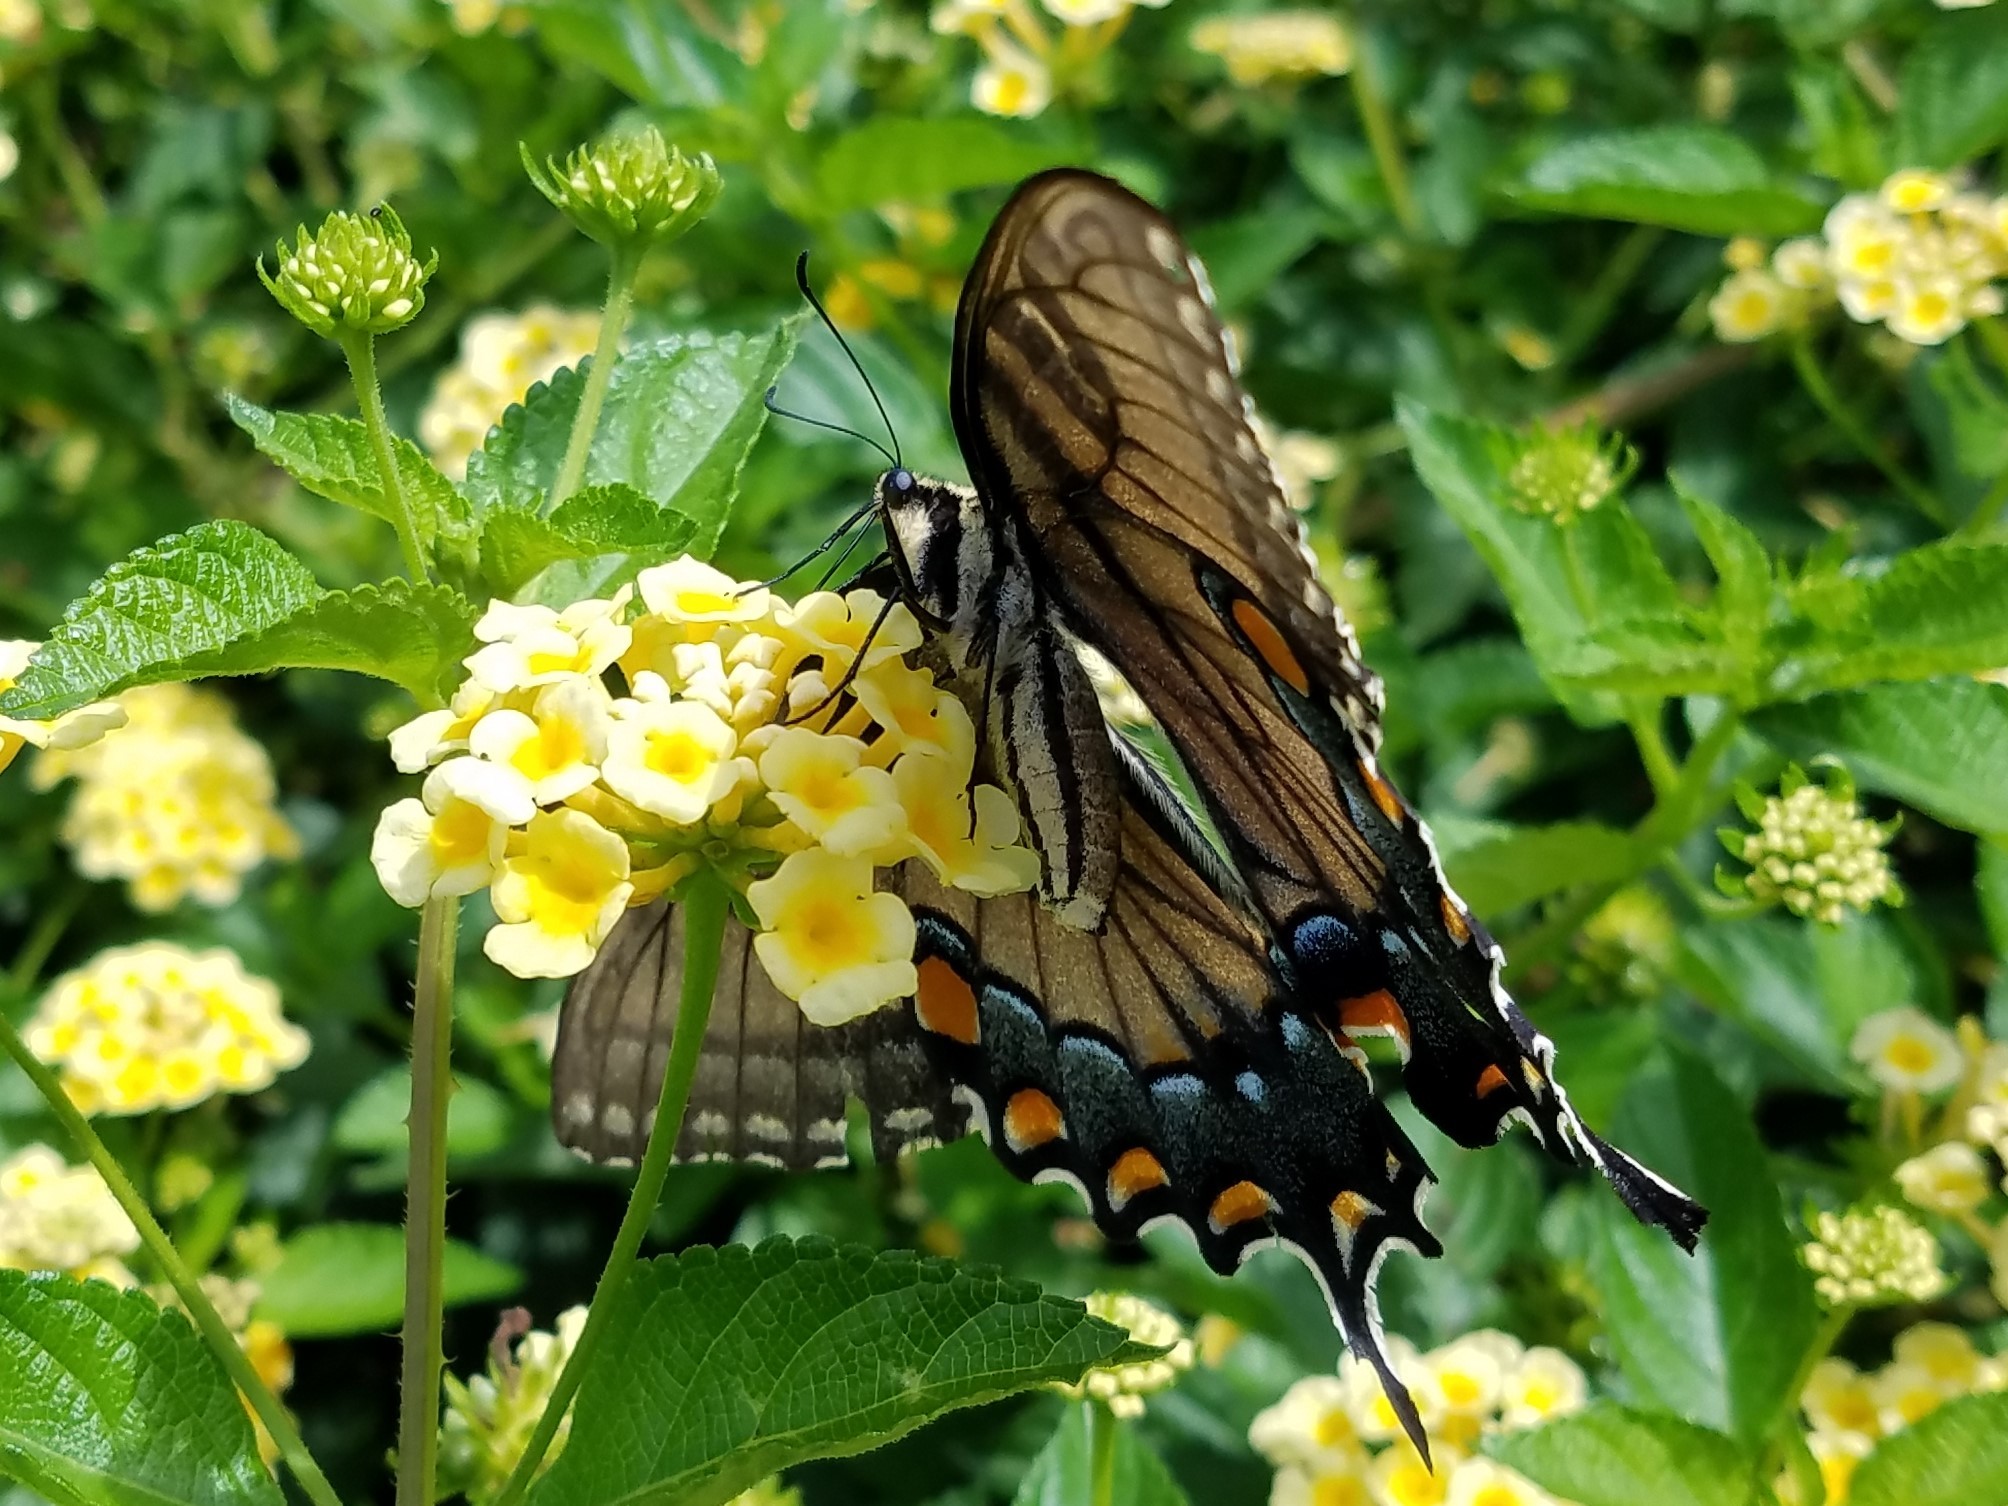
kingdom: Animalia
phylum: Arthropoda
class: Insecta
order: Lepidoptera
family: Papilionidae
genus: Papilio
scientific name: Papilio glaucus
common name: Tiger swallowtail
